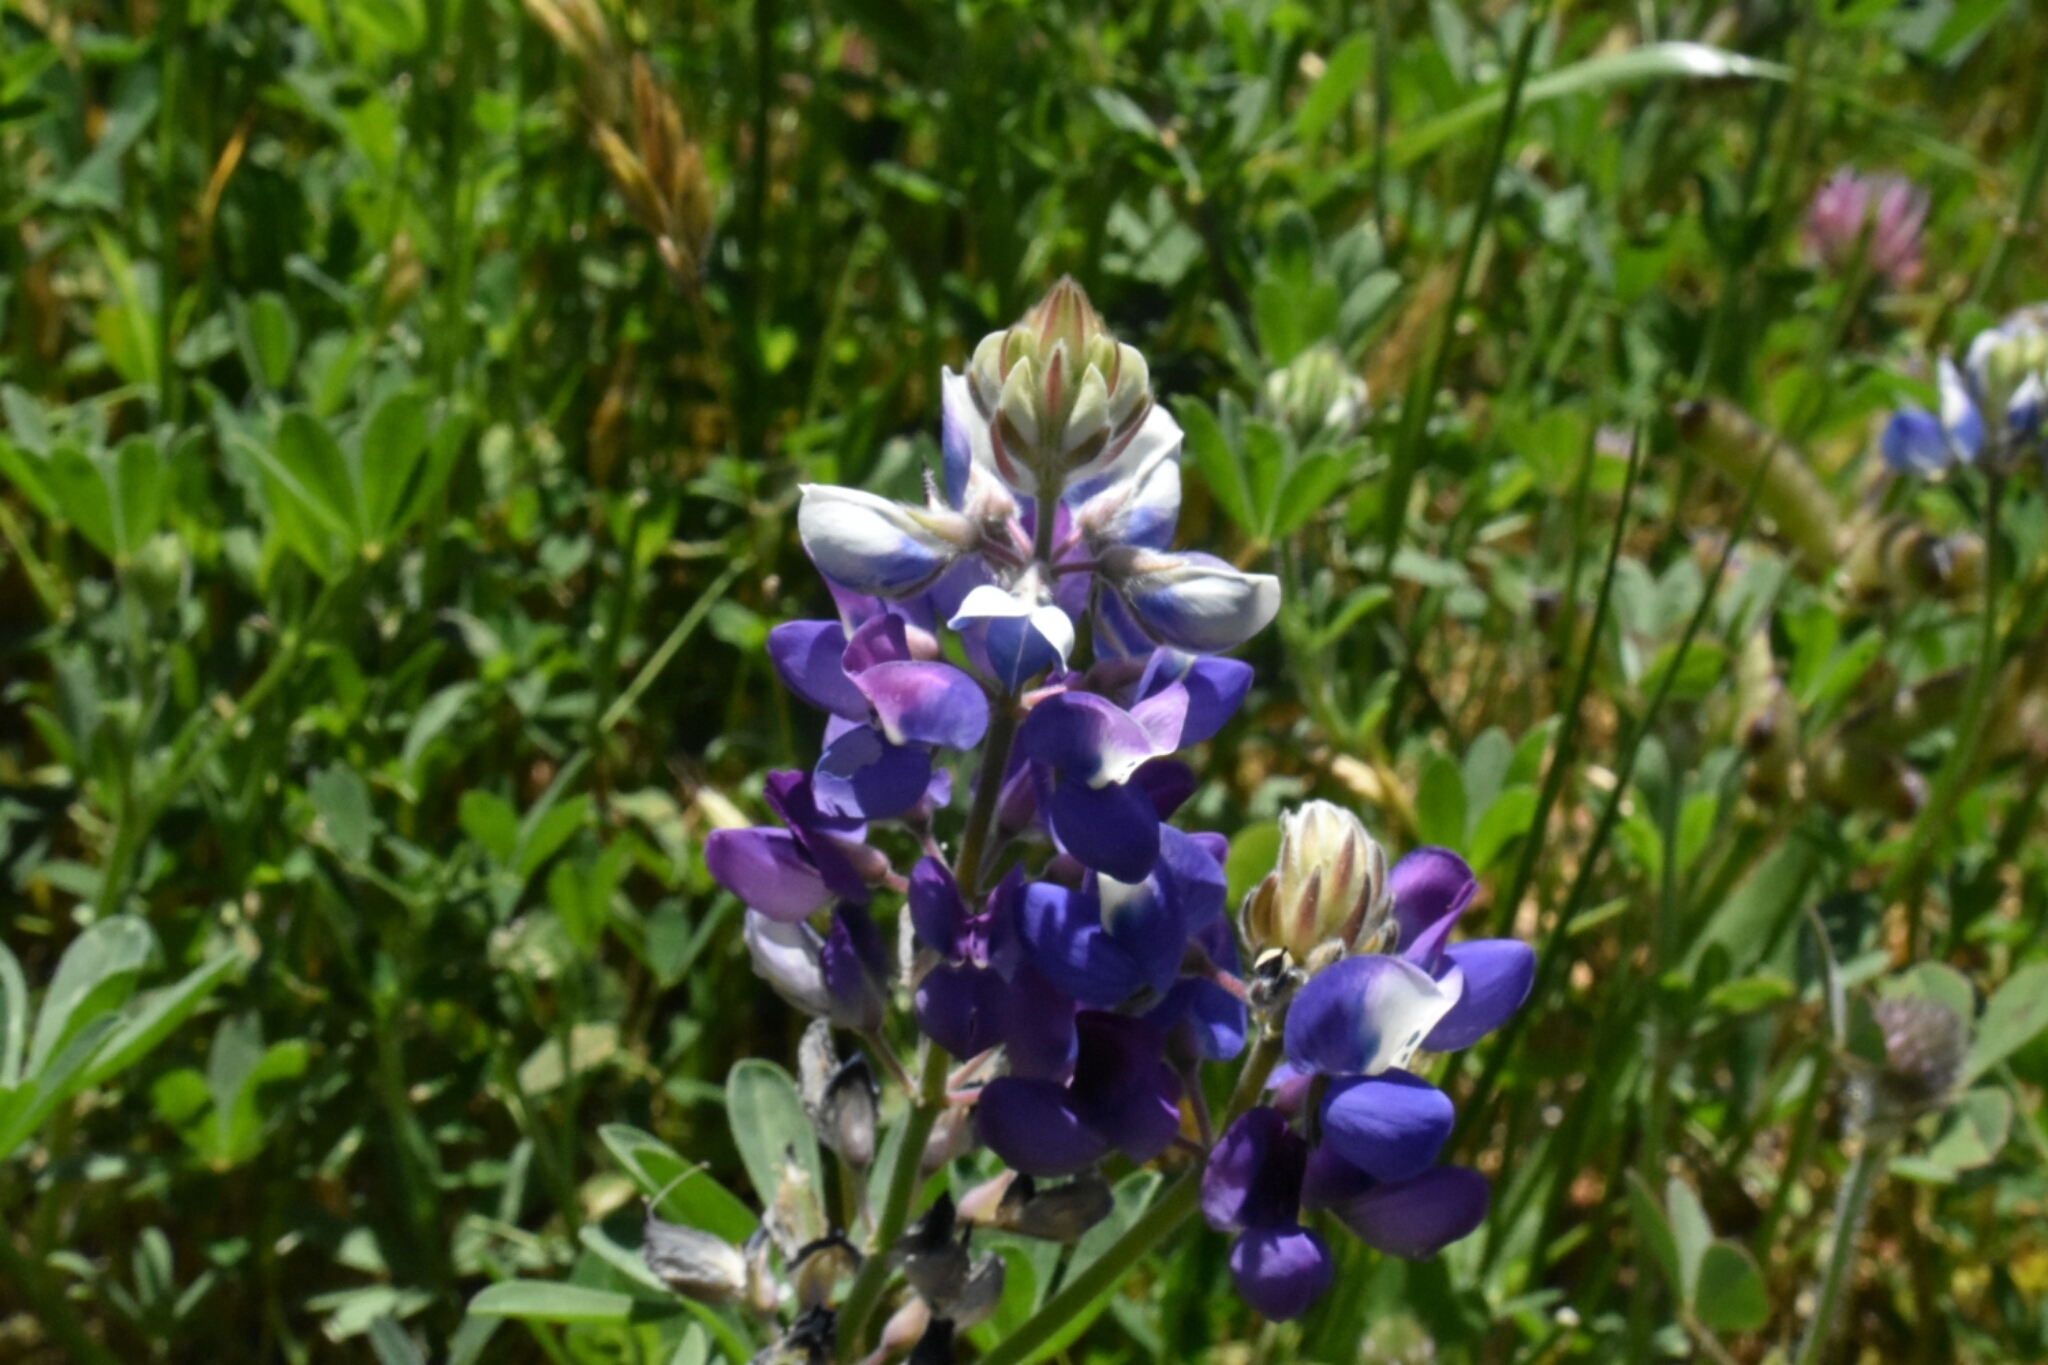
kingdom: Plantae
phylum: Tracheophyta
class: Magnoliopsida
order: Fabales
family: Fabaceae
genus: Lupinus
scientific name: Lupinus succulentus
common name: Arroyo lupine
